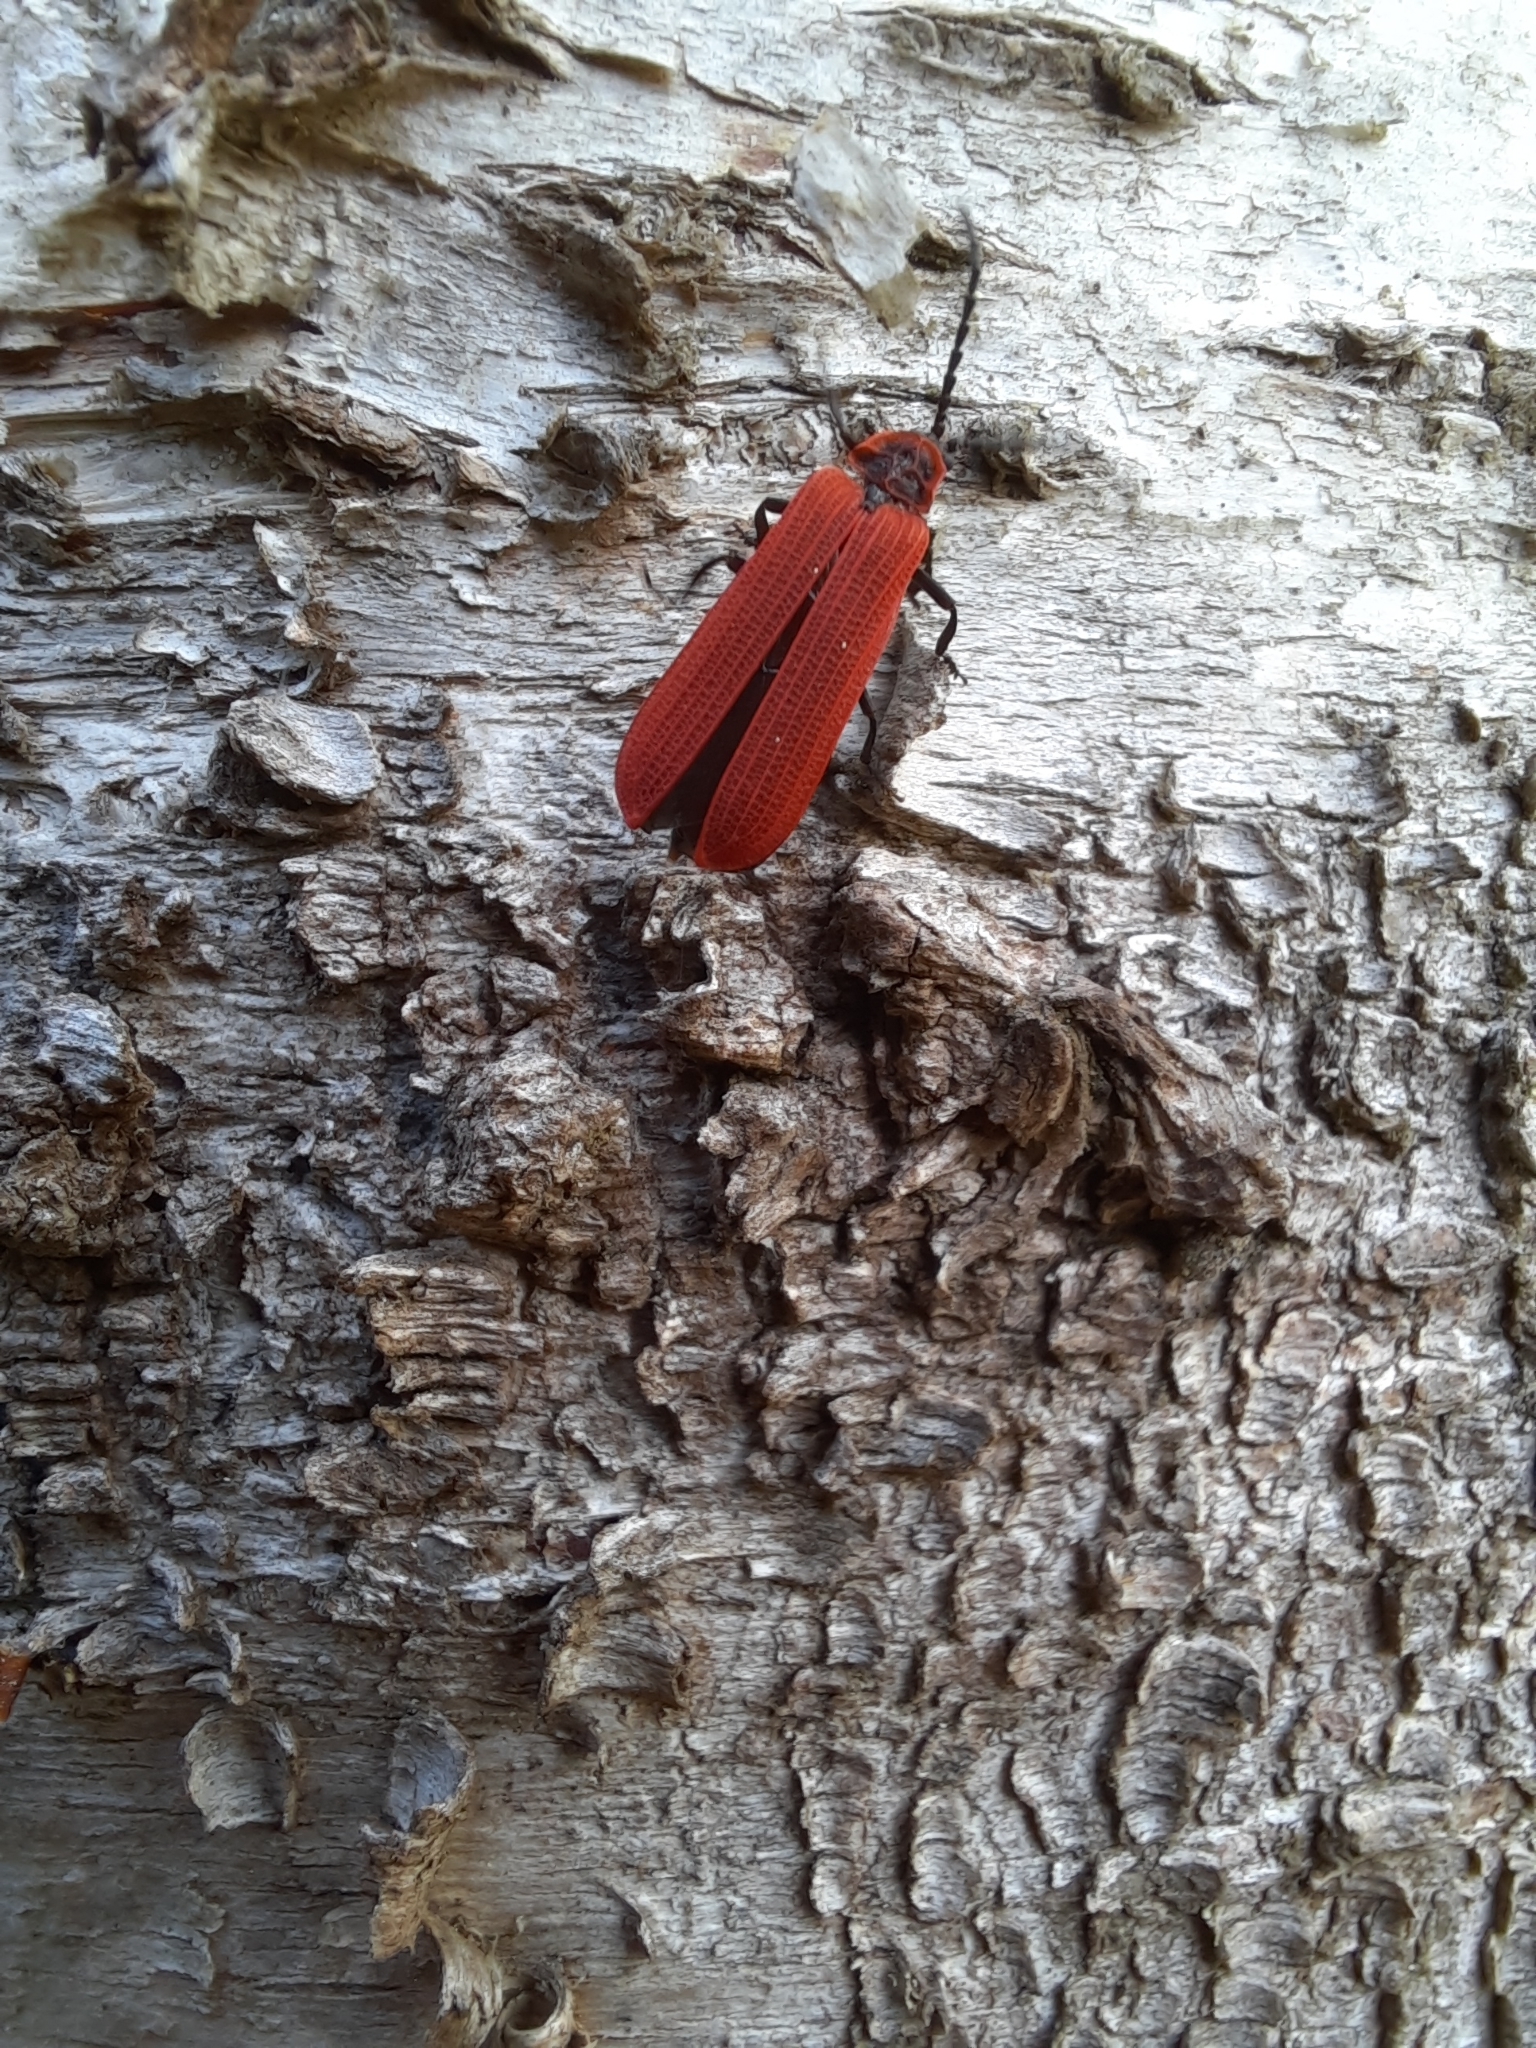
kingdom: Animalia
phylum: Arthropoda
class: Insecta
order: Coleoptera
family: Lycidae
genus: Dictyoptera
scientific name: Dictyoptera aurora
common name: Golden net-winged beetle
